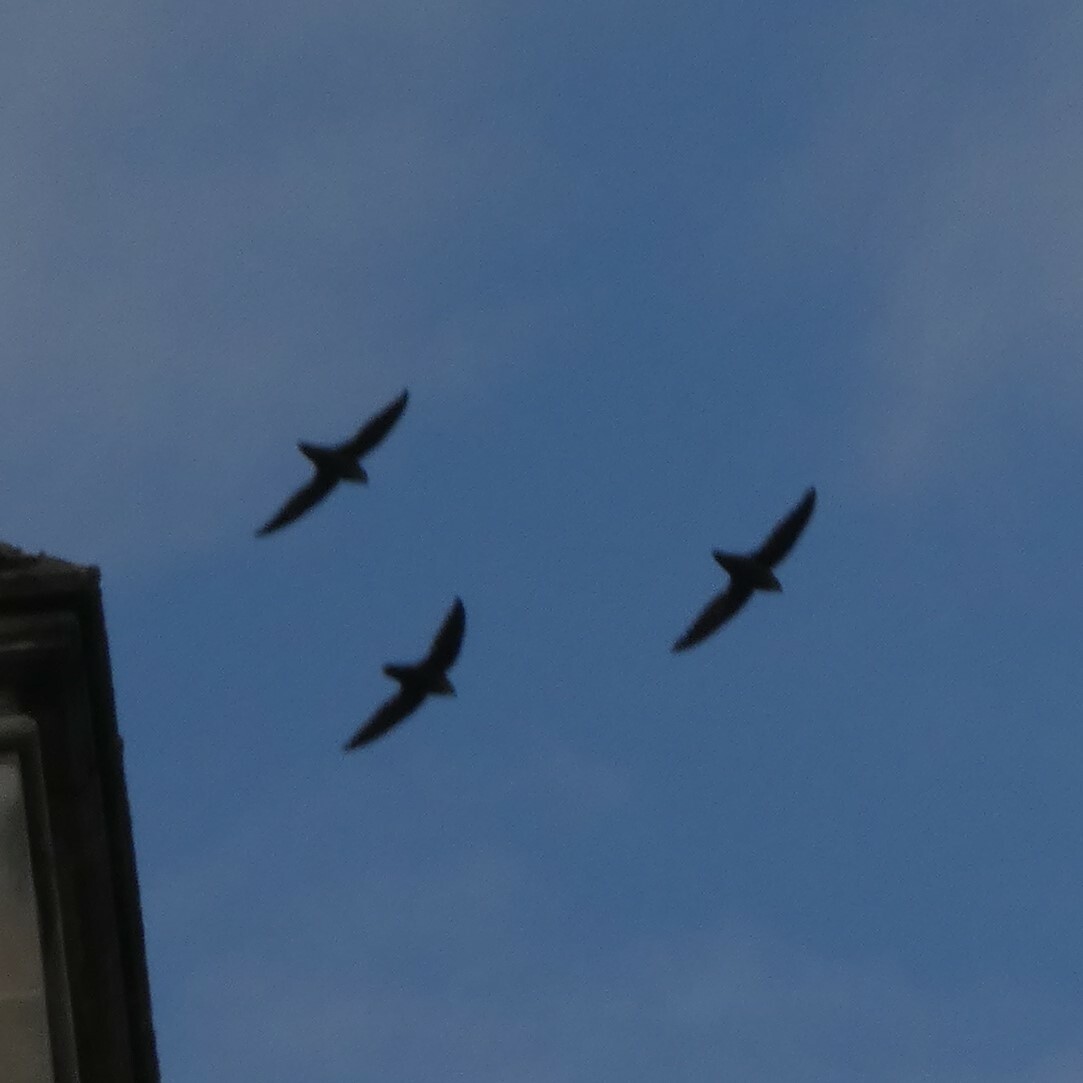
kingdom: Animalia
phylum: Chordata
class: Aves
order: Apodiformes
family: Apodidae
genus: Chaetura
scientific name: Chaetura pelagica
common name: Chimney swift
